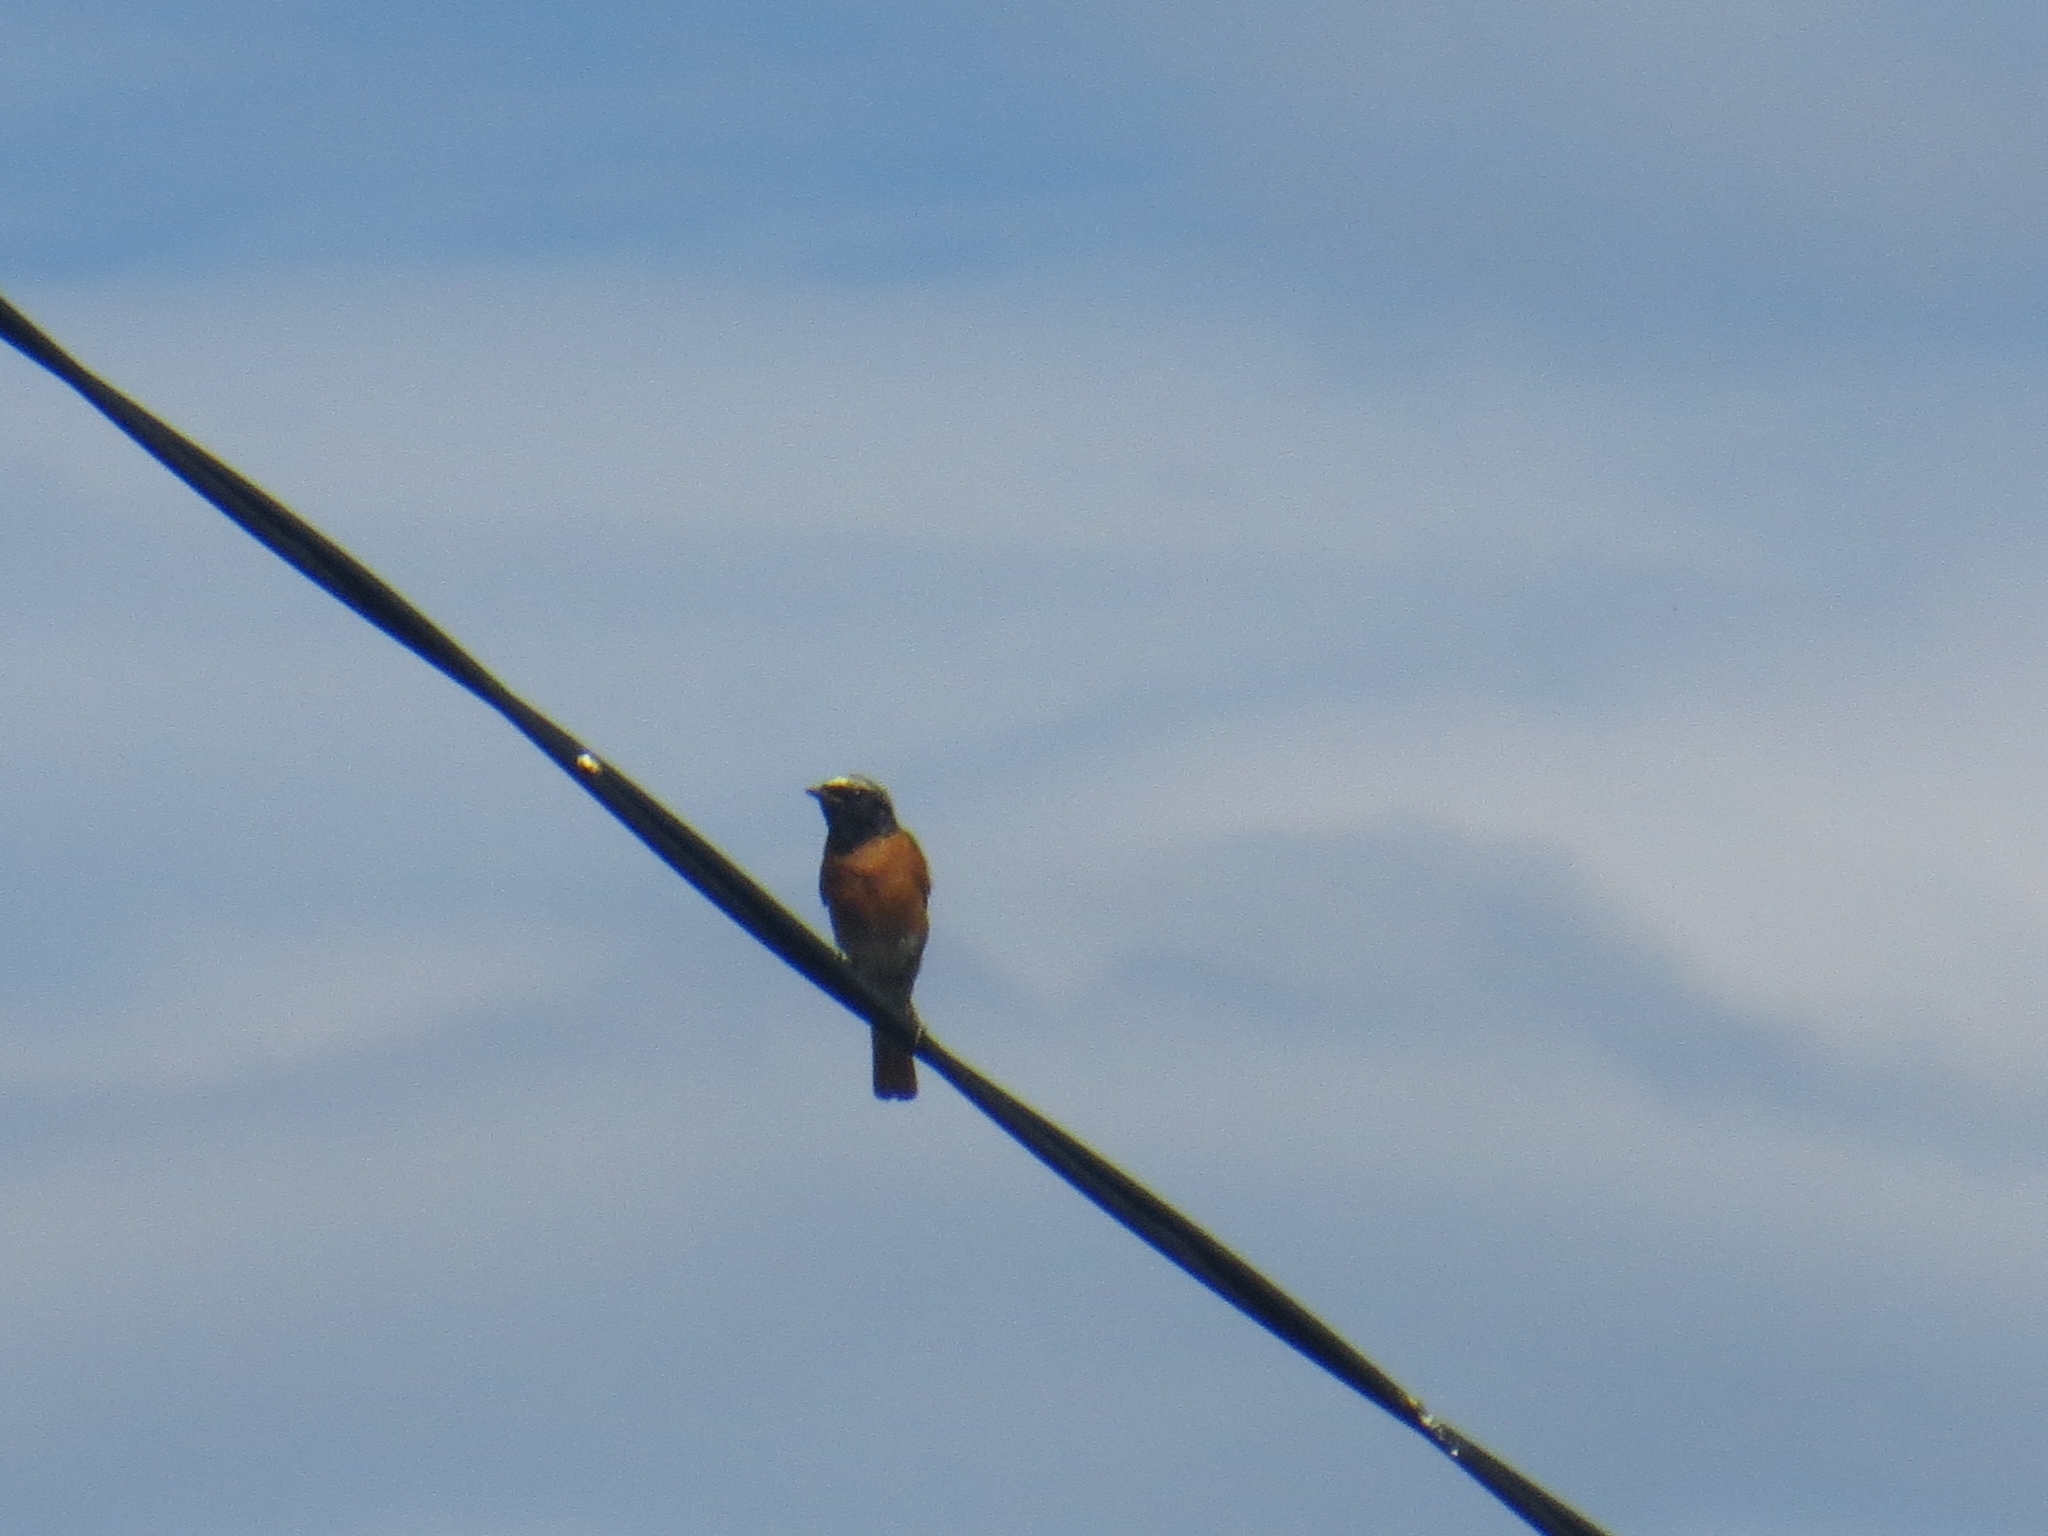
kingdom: Animalia
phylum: Chordata
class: Aves
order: Passeriformes
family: Muscicapidae
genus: Phoenicurus
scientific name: Phoenicurus phoenicurus
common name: Common redstart
